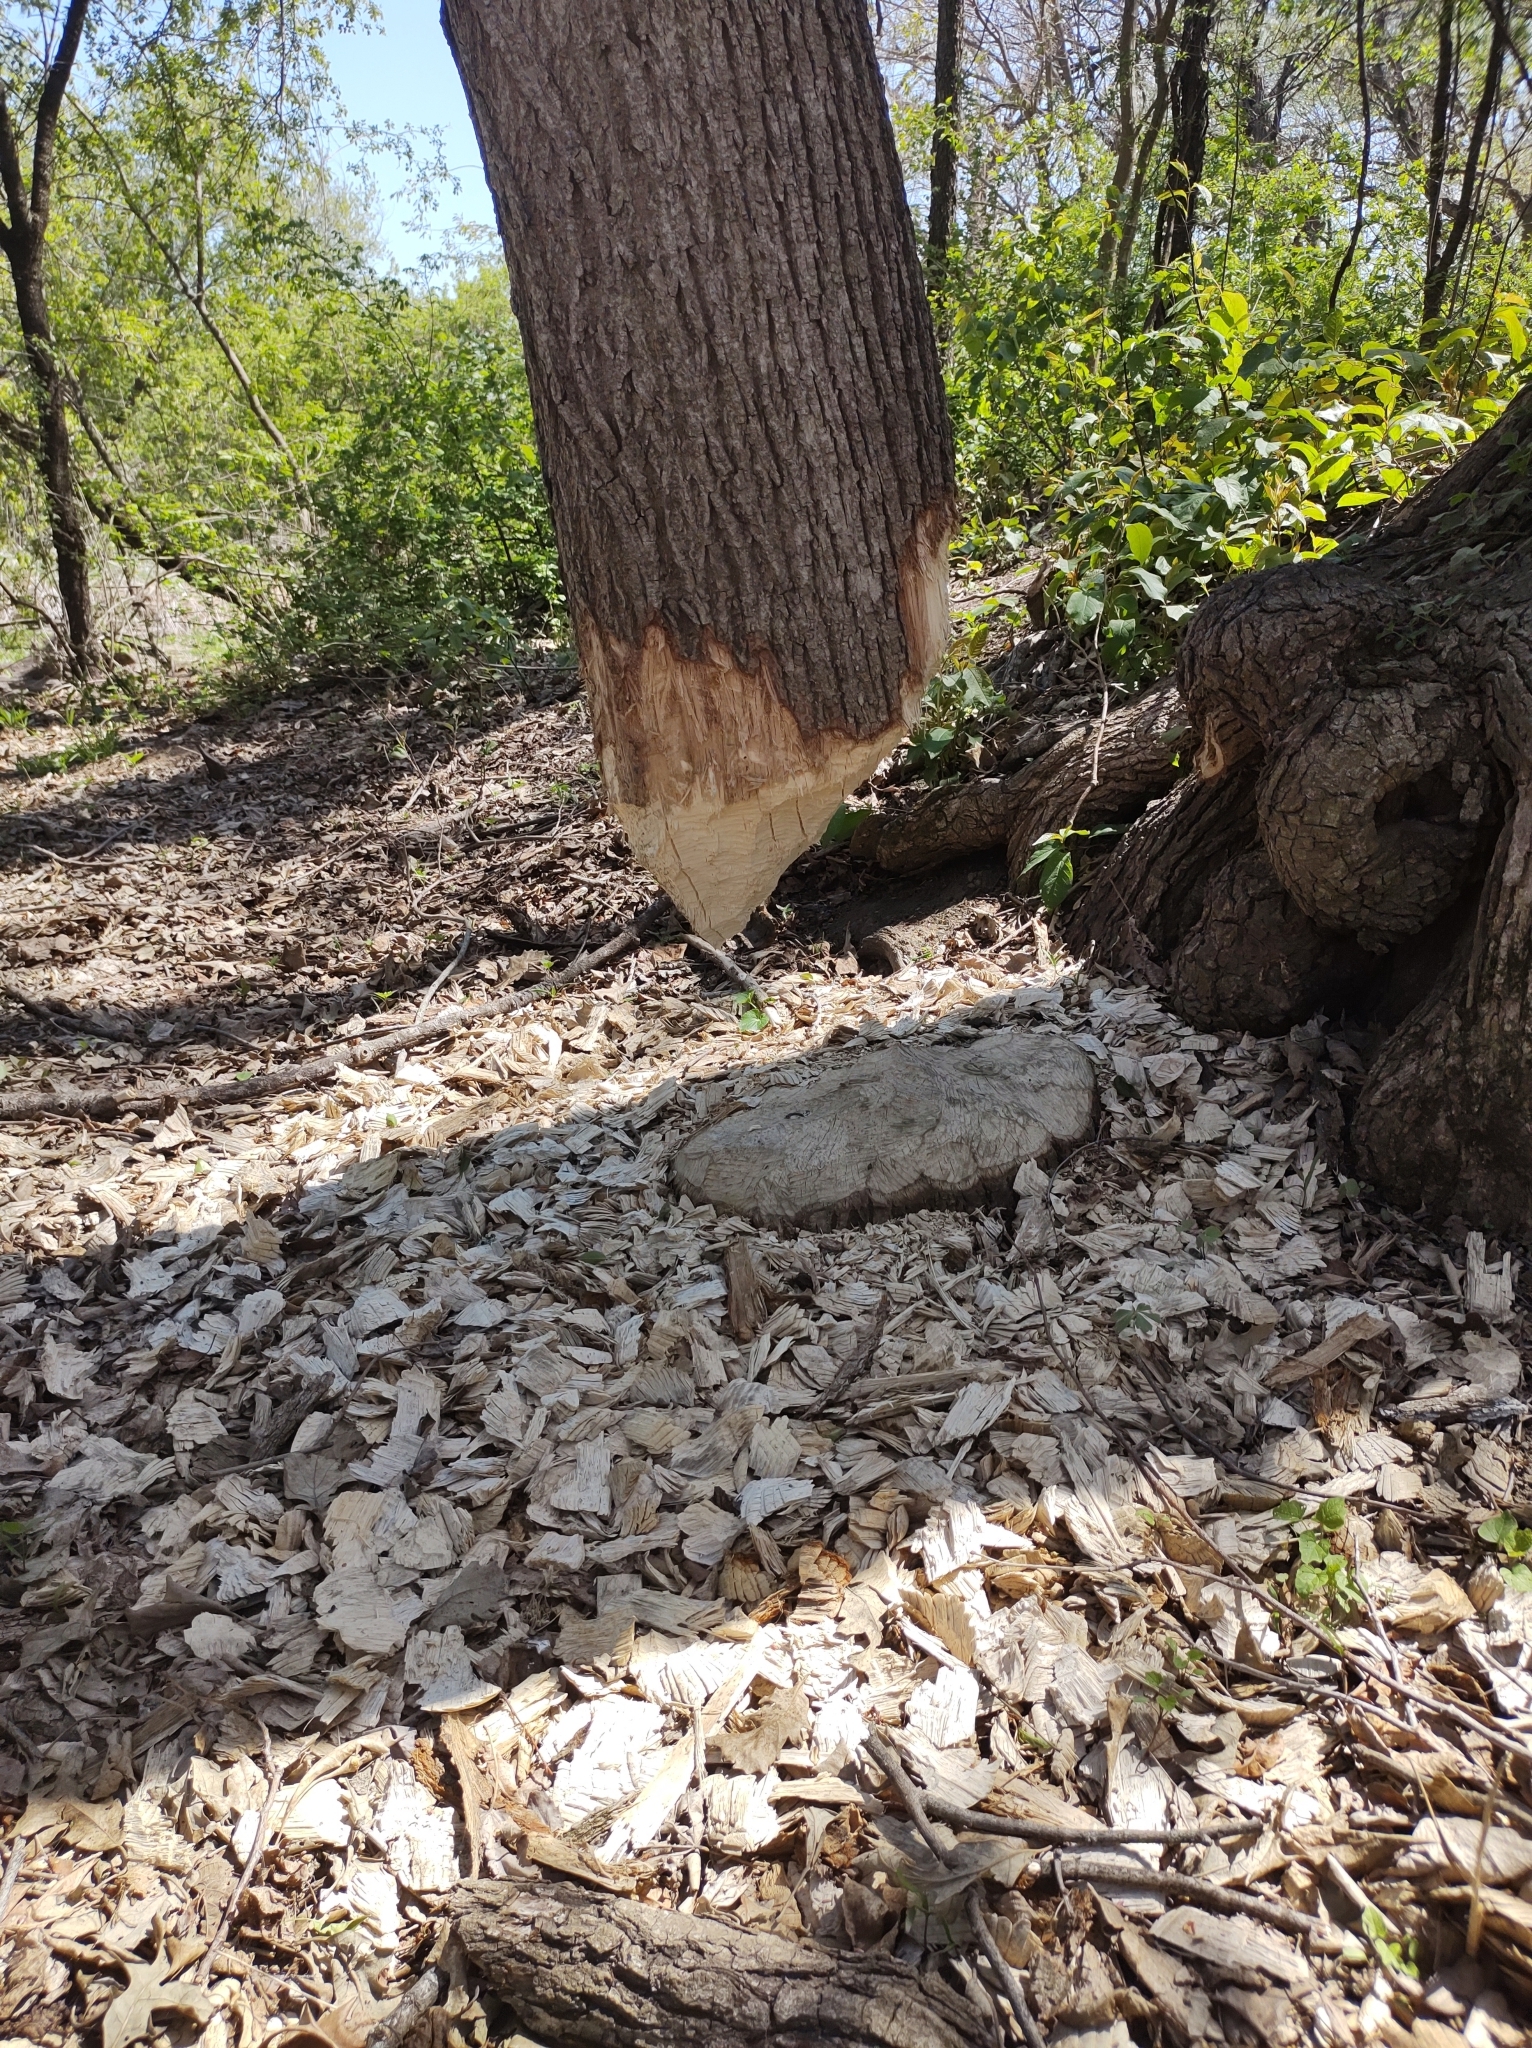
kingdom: Animalia
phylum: Chordata
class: Mammalia
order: Rodentia
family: Castoridae
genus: Castor
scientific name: Castor canadensis
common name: American beaver
